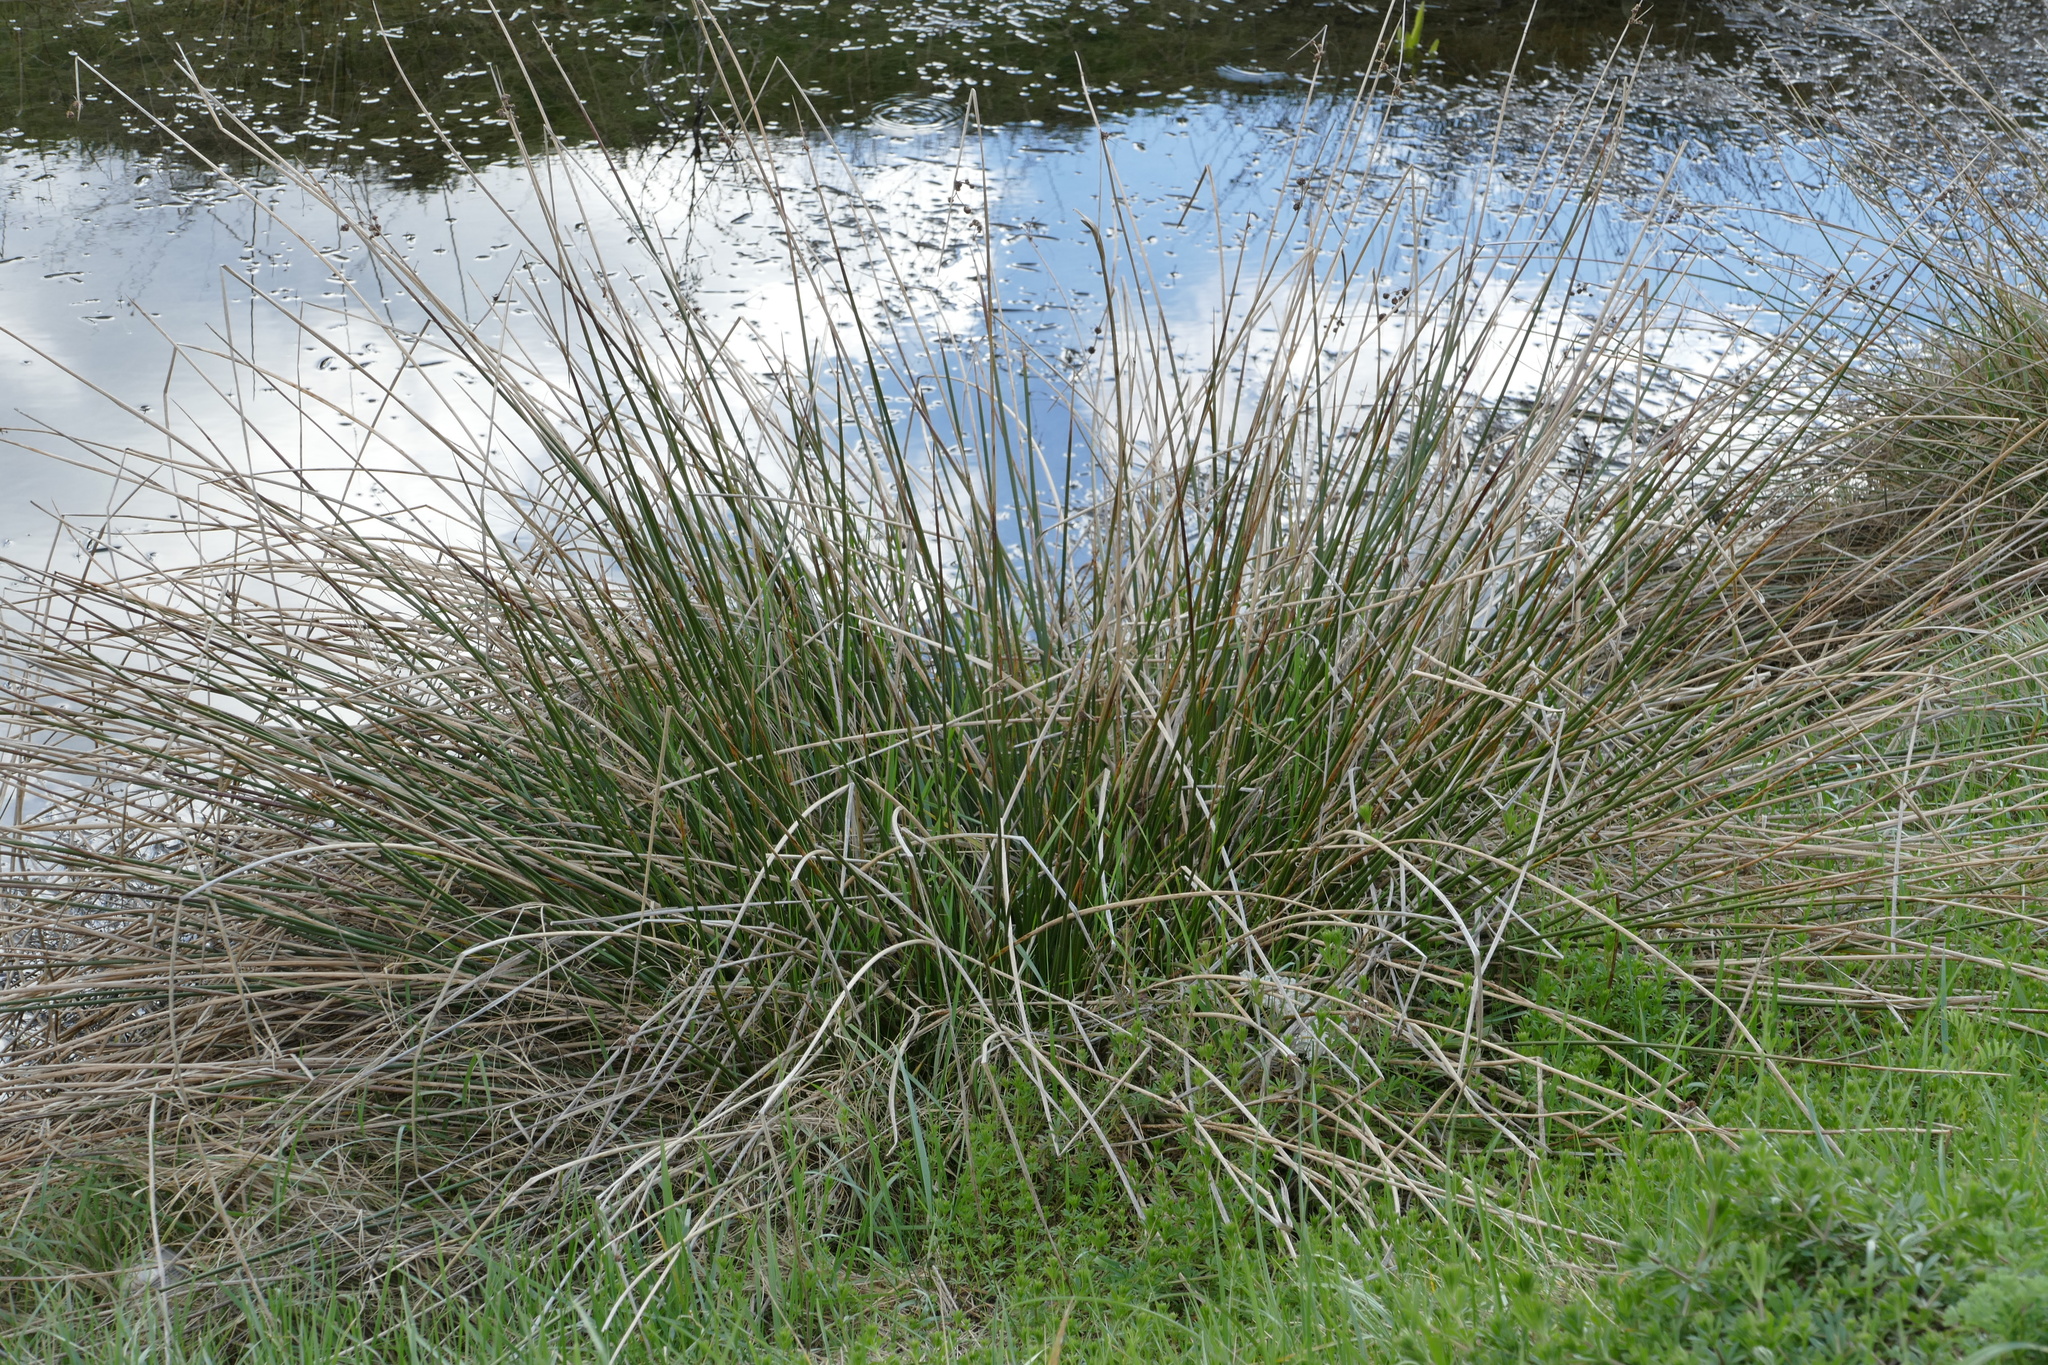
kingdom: Plantae
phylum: Tracheophyta
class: Liliopsida
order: Poales
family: Cyperaceae
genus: Scirpoides
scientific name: Scirpoides holoschoenus
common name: Round-headed club-rush
